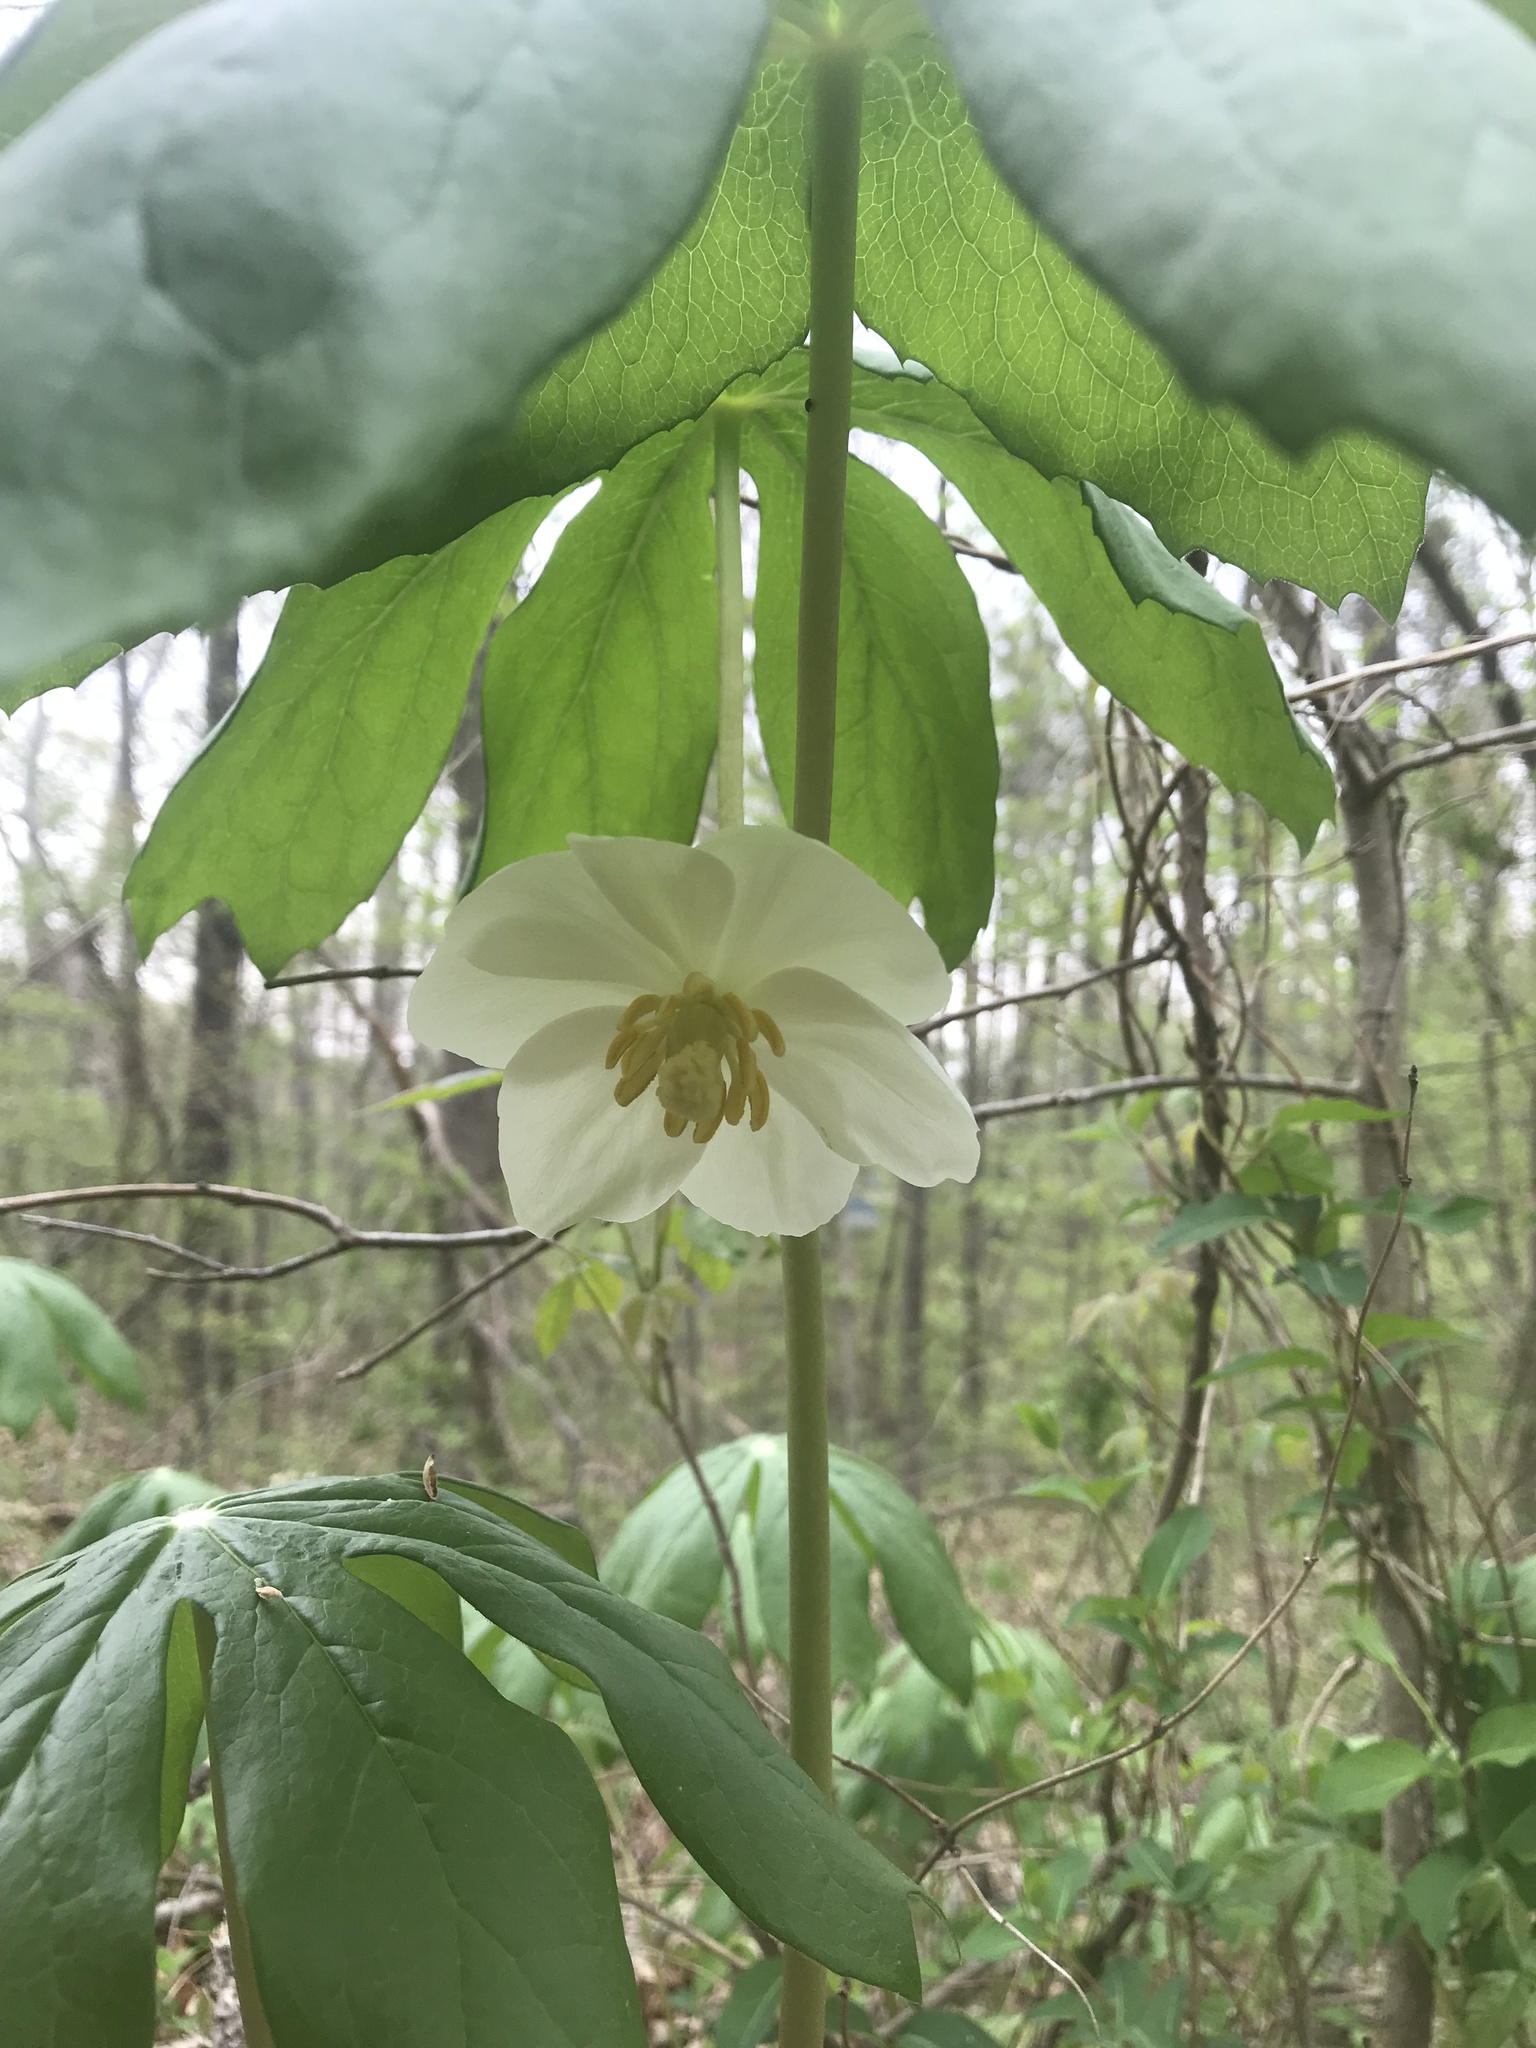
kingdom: Plantae
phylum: Tracheophyta
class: Magnoliopsida
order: Ranunculales
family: Berberidaceae
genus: Podophyllum
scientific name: Podophyllum peltatum
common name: Wild mandrake
